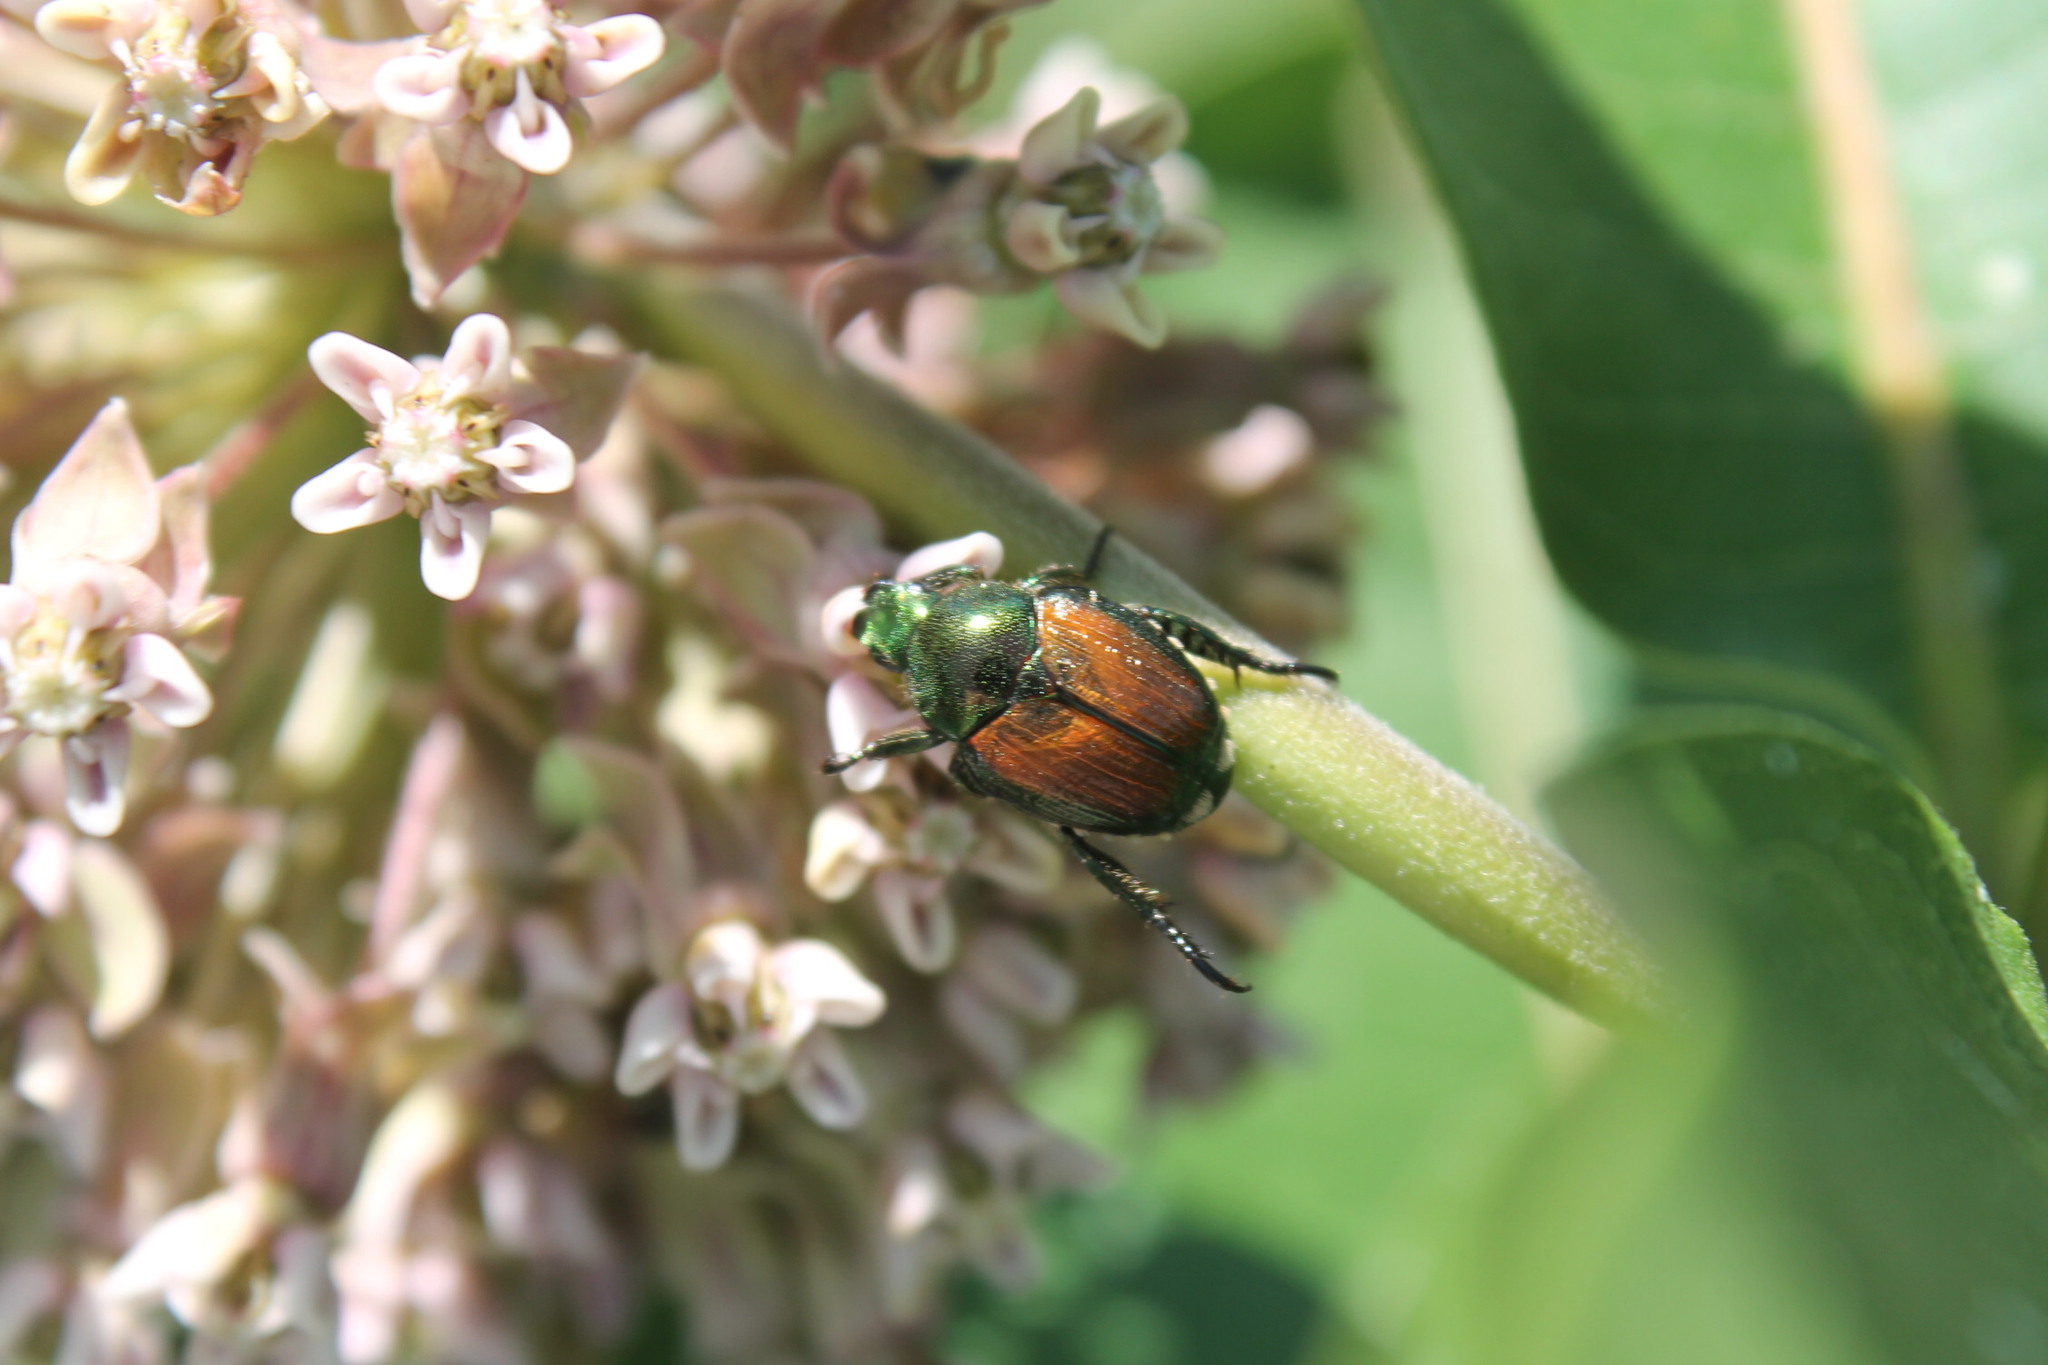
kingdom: Animalia
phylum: Arthropoda
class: Insecta
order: Coleoptera
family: Scarabaeidae
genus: Popillia
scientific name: Popillia japonica
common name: Japanese beetle
